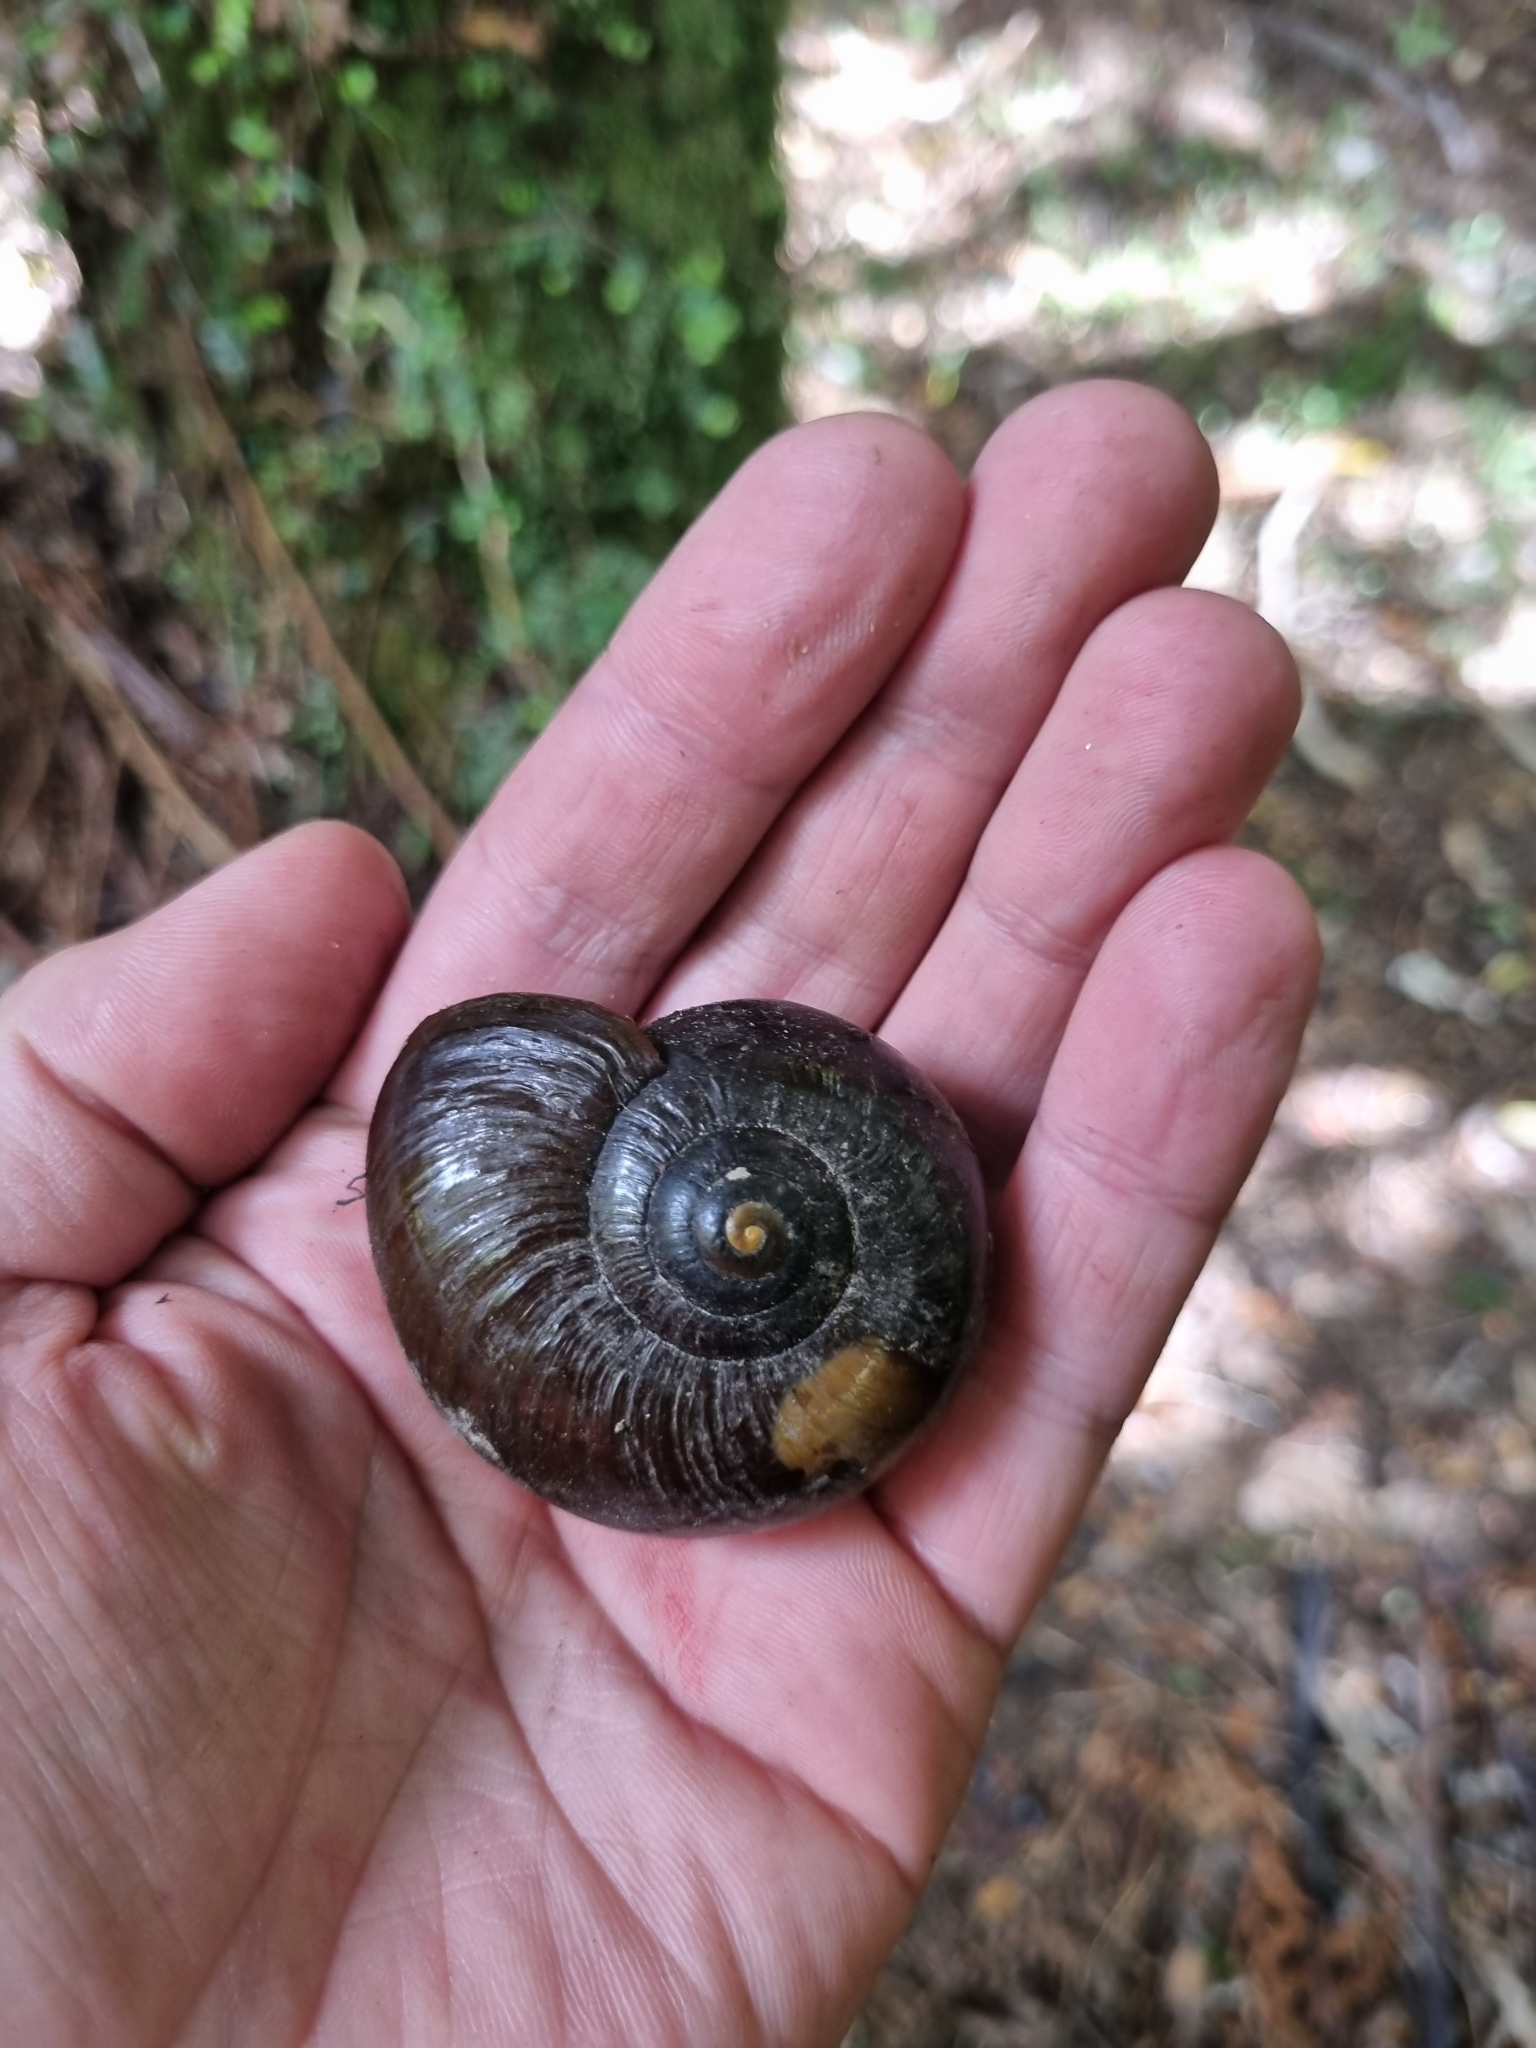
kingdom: Animalia
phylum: Mollusca
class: Gastropoda
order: Stylommatophora
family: Rhytididae
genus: Powelliphanta
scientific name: Powelliphanta superba
